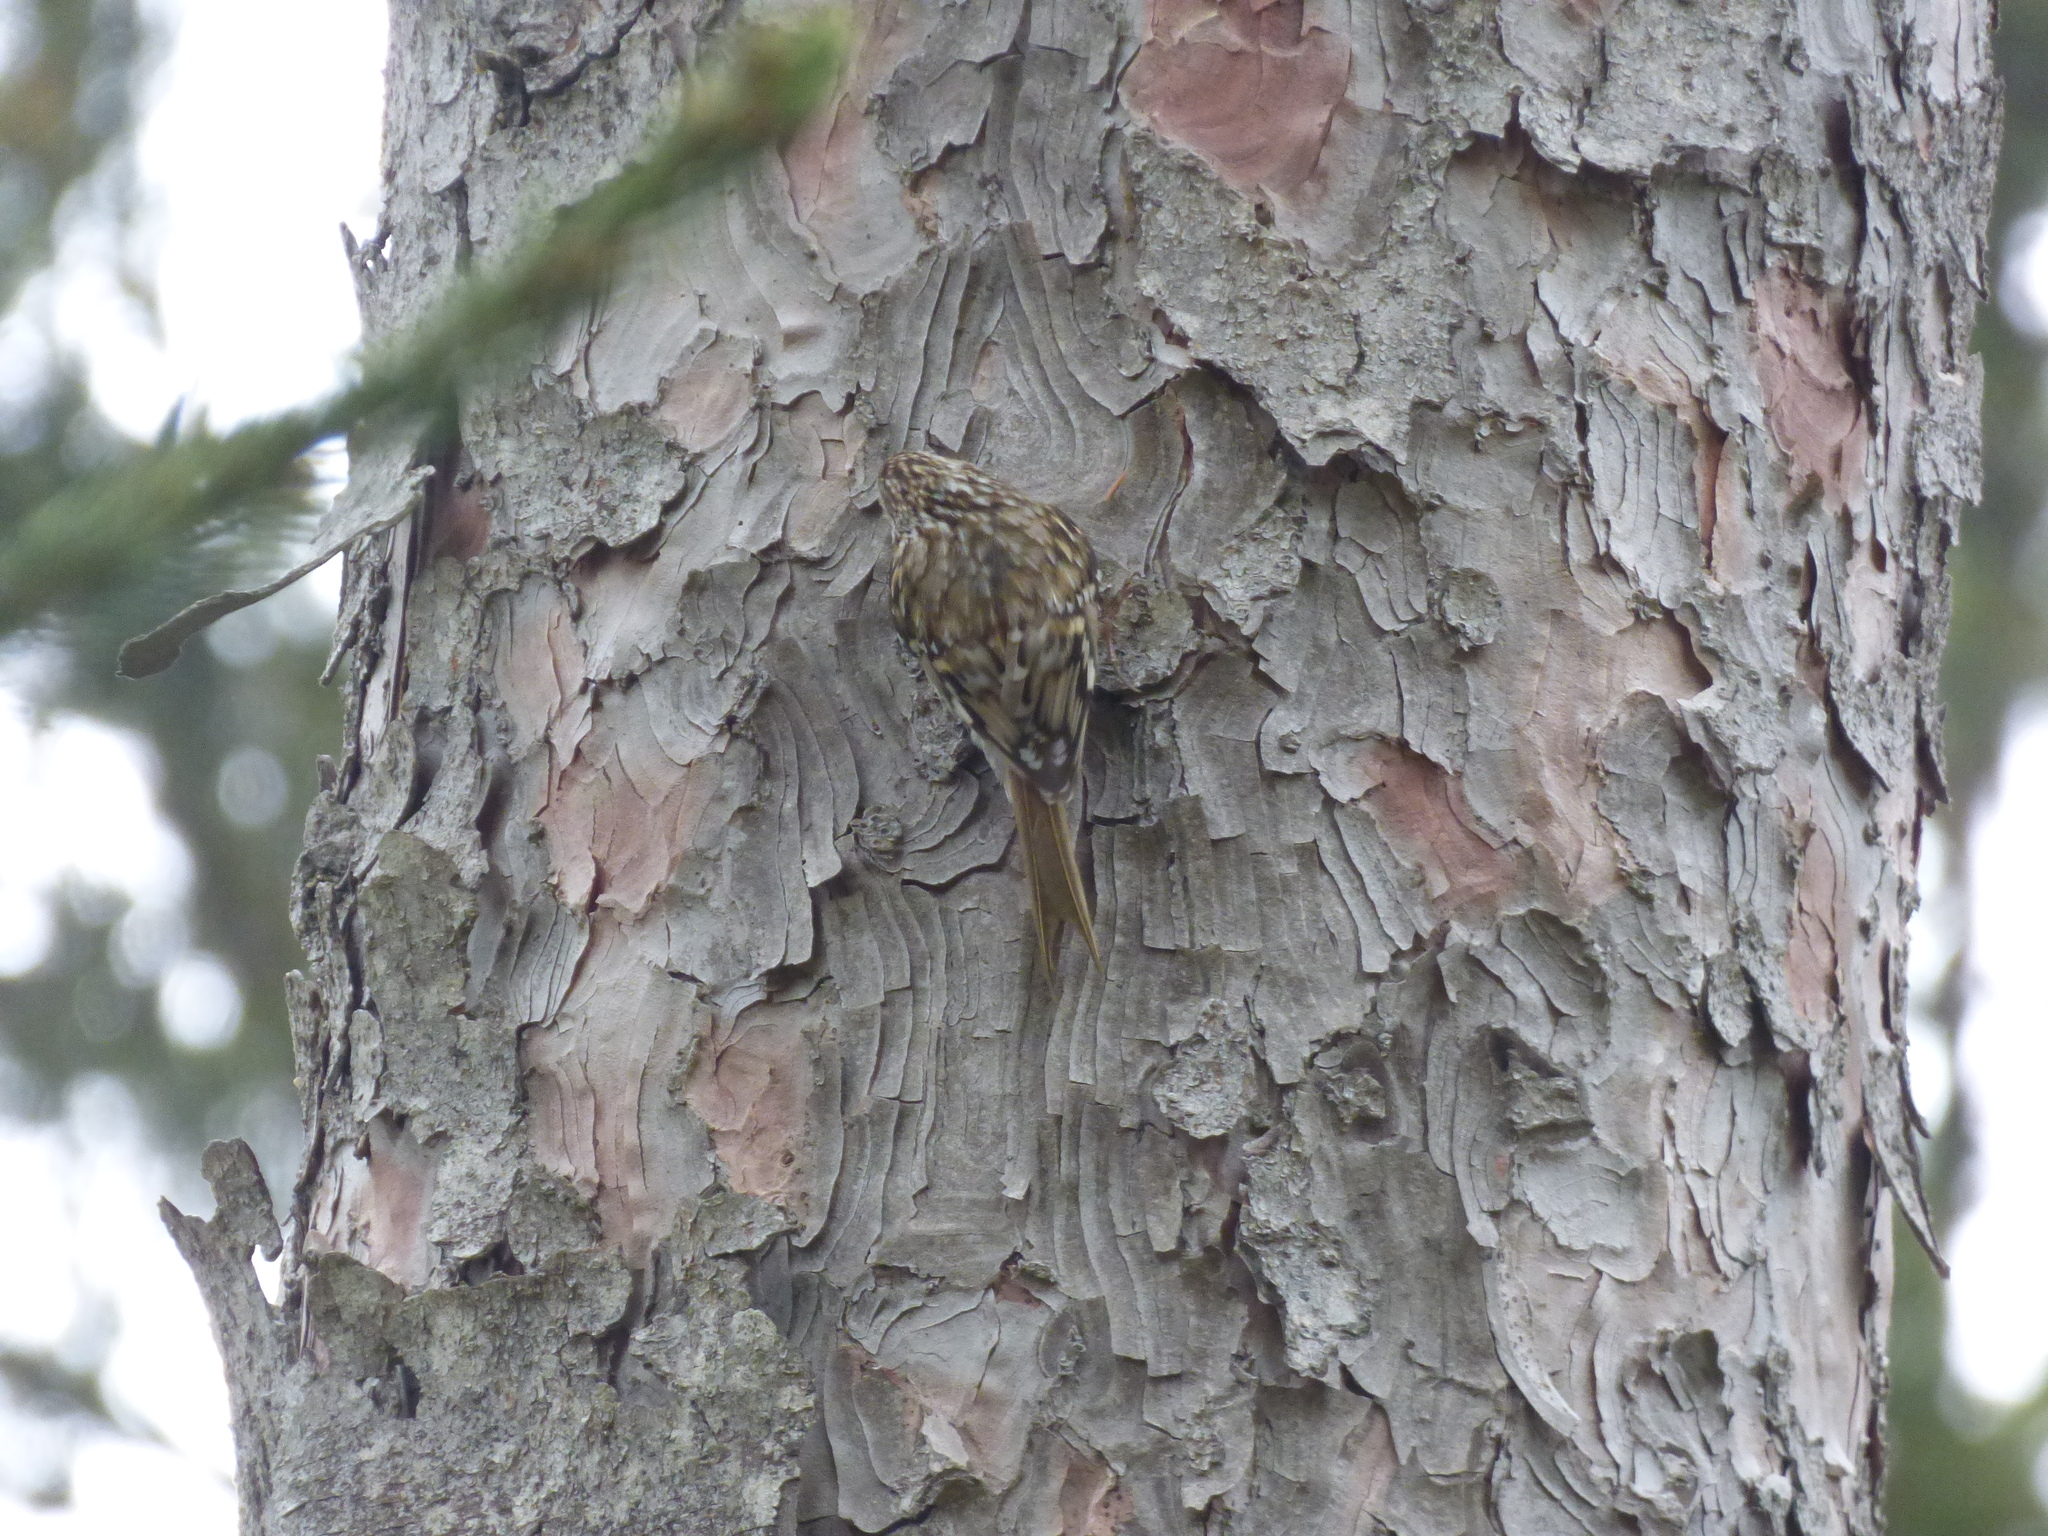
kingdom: Animalia
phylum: Chordata
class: Aves
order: Passeriformes
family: Certhiidae
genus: Certhia
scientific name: Certhia familiaris
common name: Eurasian treecreeper
